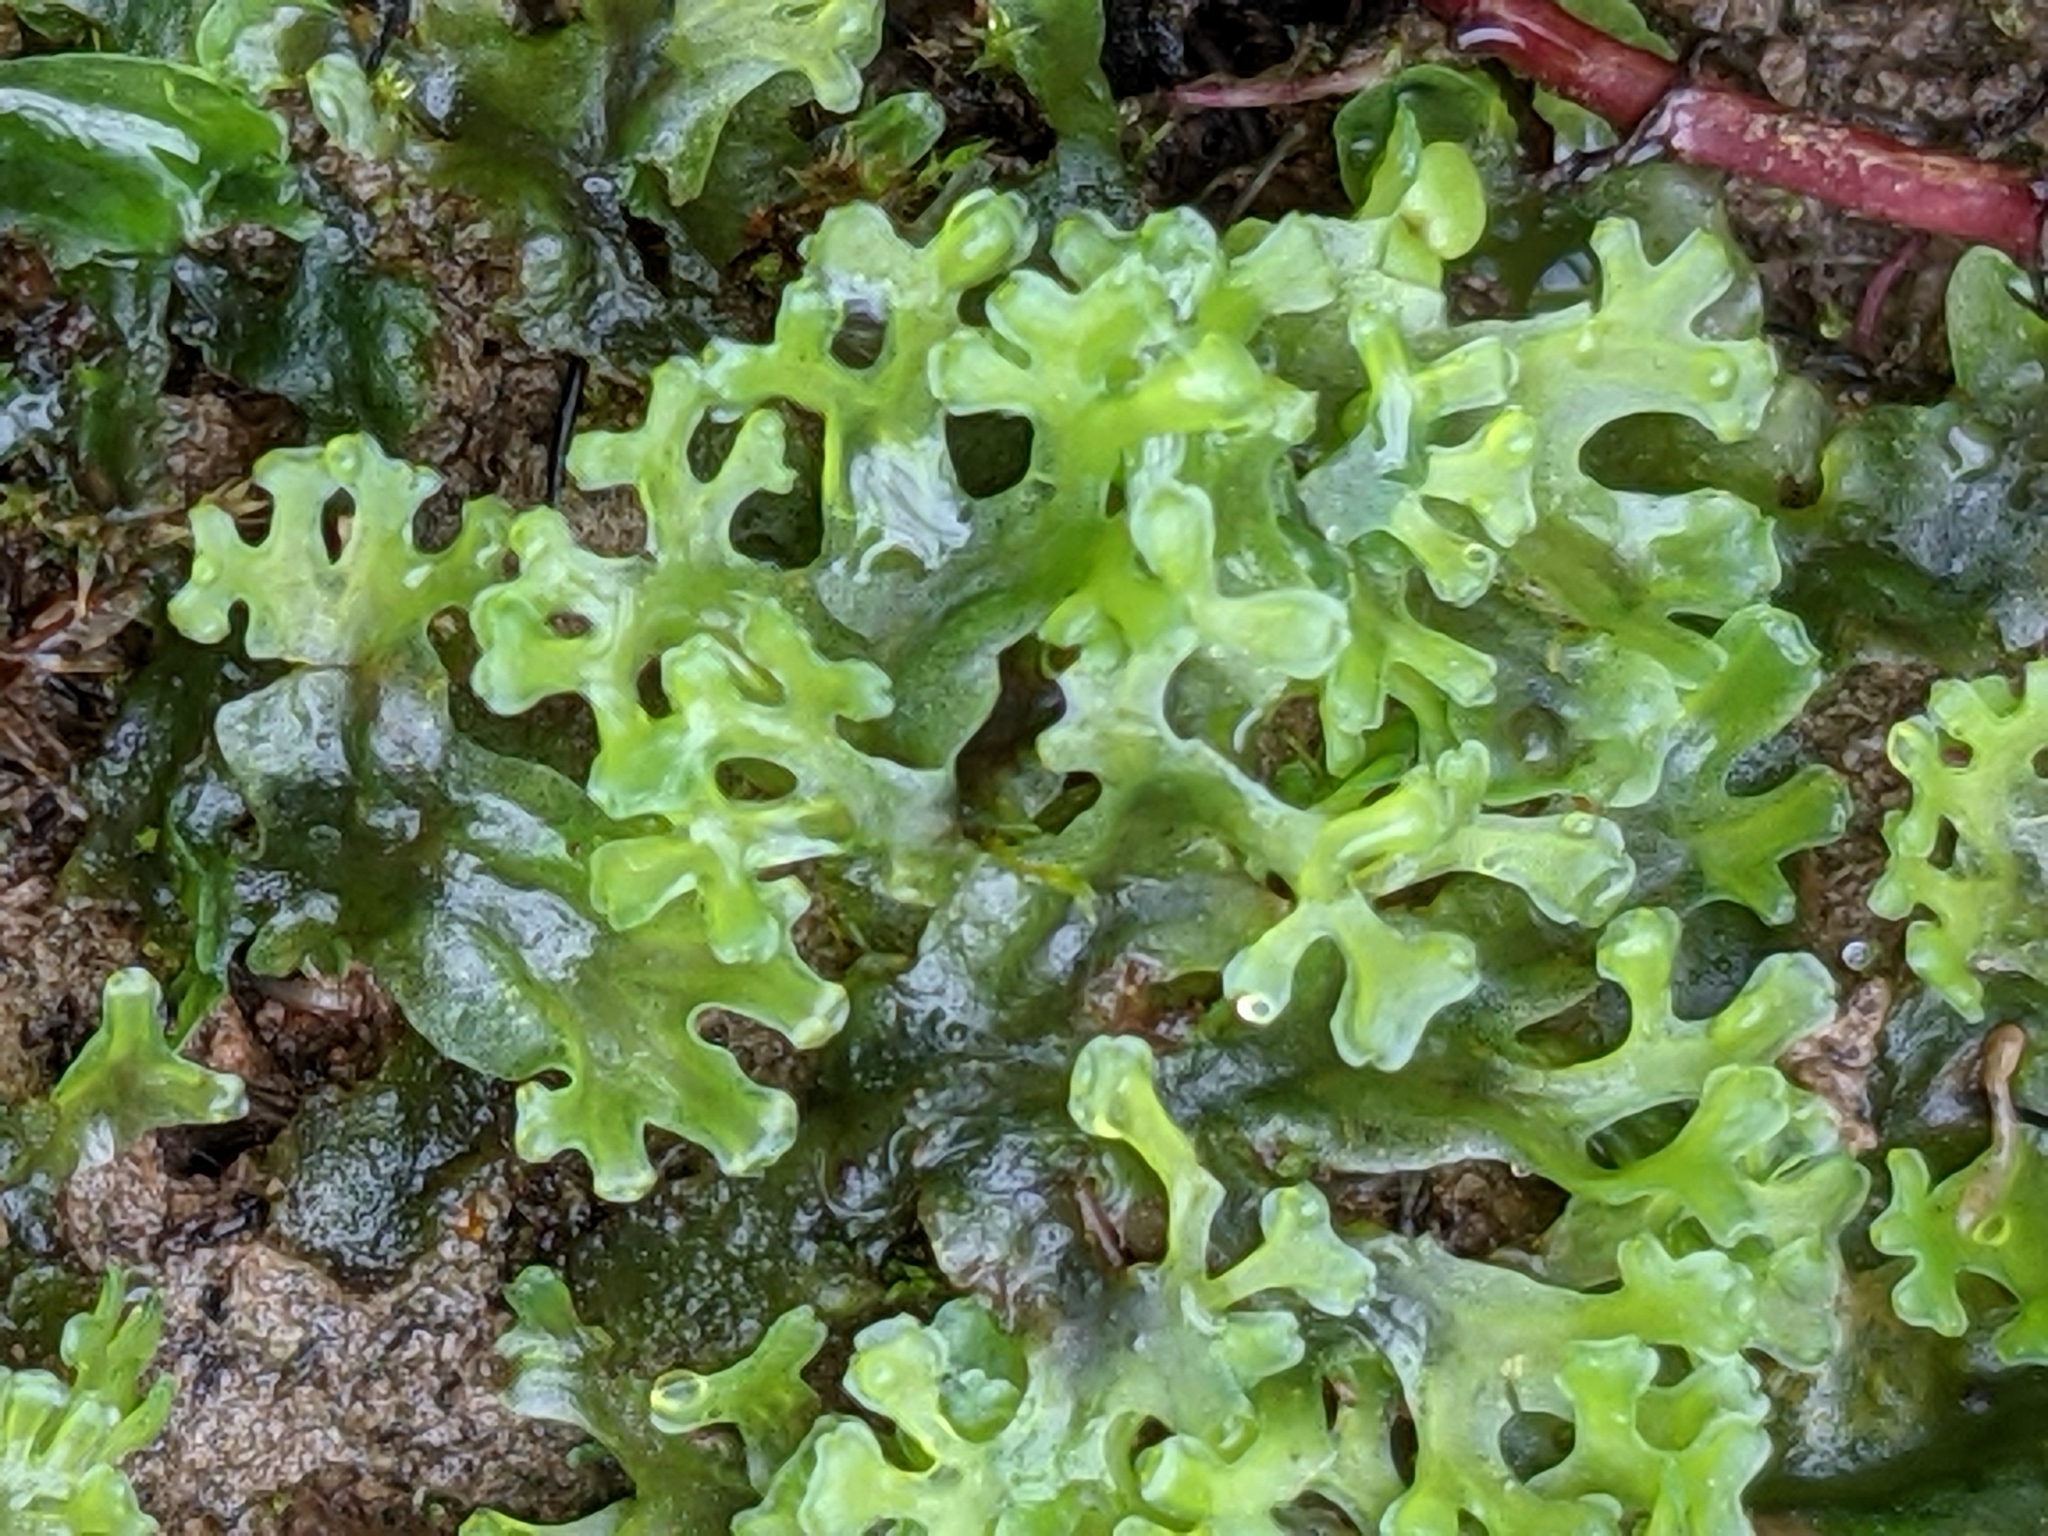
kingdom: Plantae
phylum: Marchantiophyta
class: Jungermanniopsida
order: Pelliales
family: Pelliaceae
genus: Apopellia
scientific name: Apopellia endiviifolia
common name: Endive pellia
